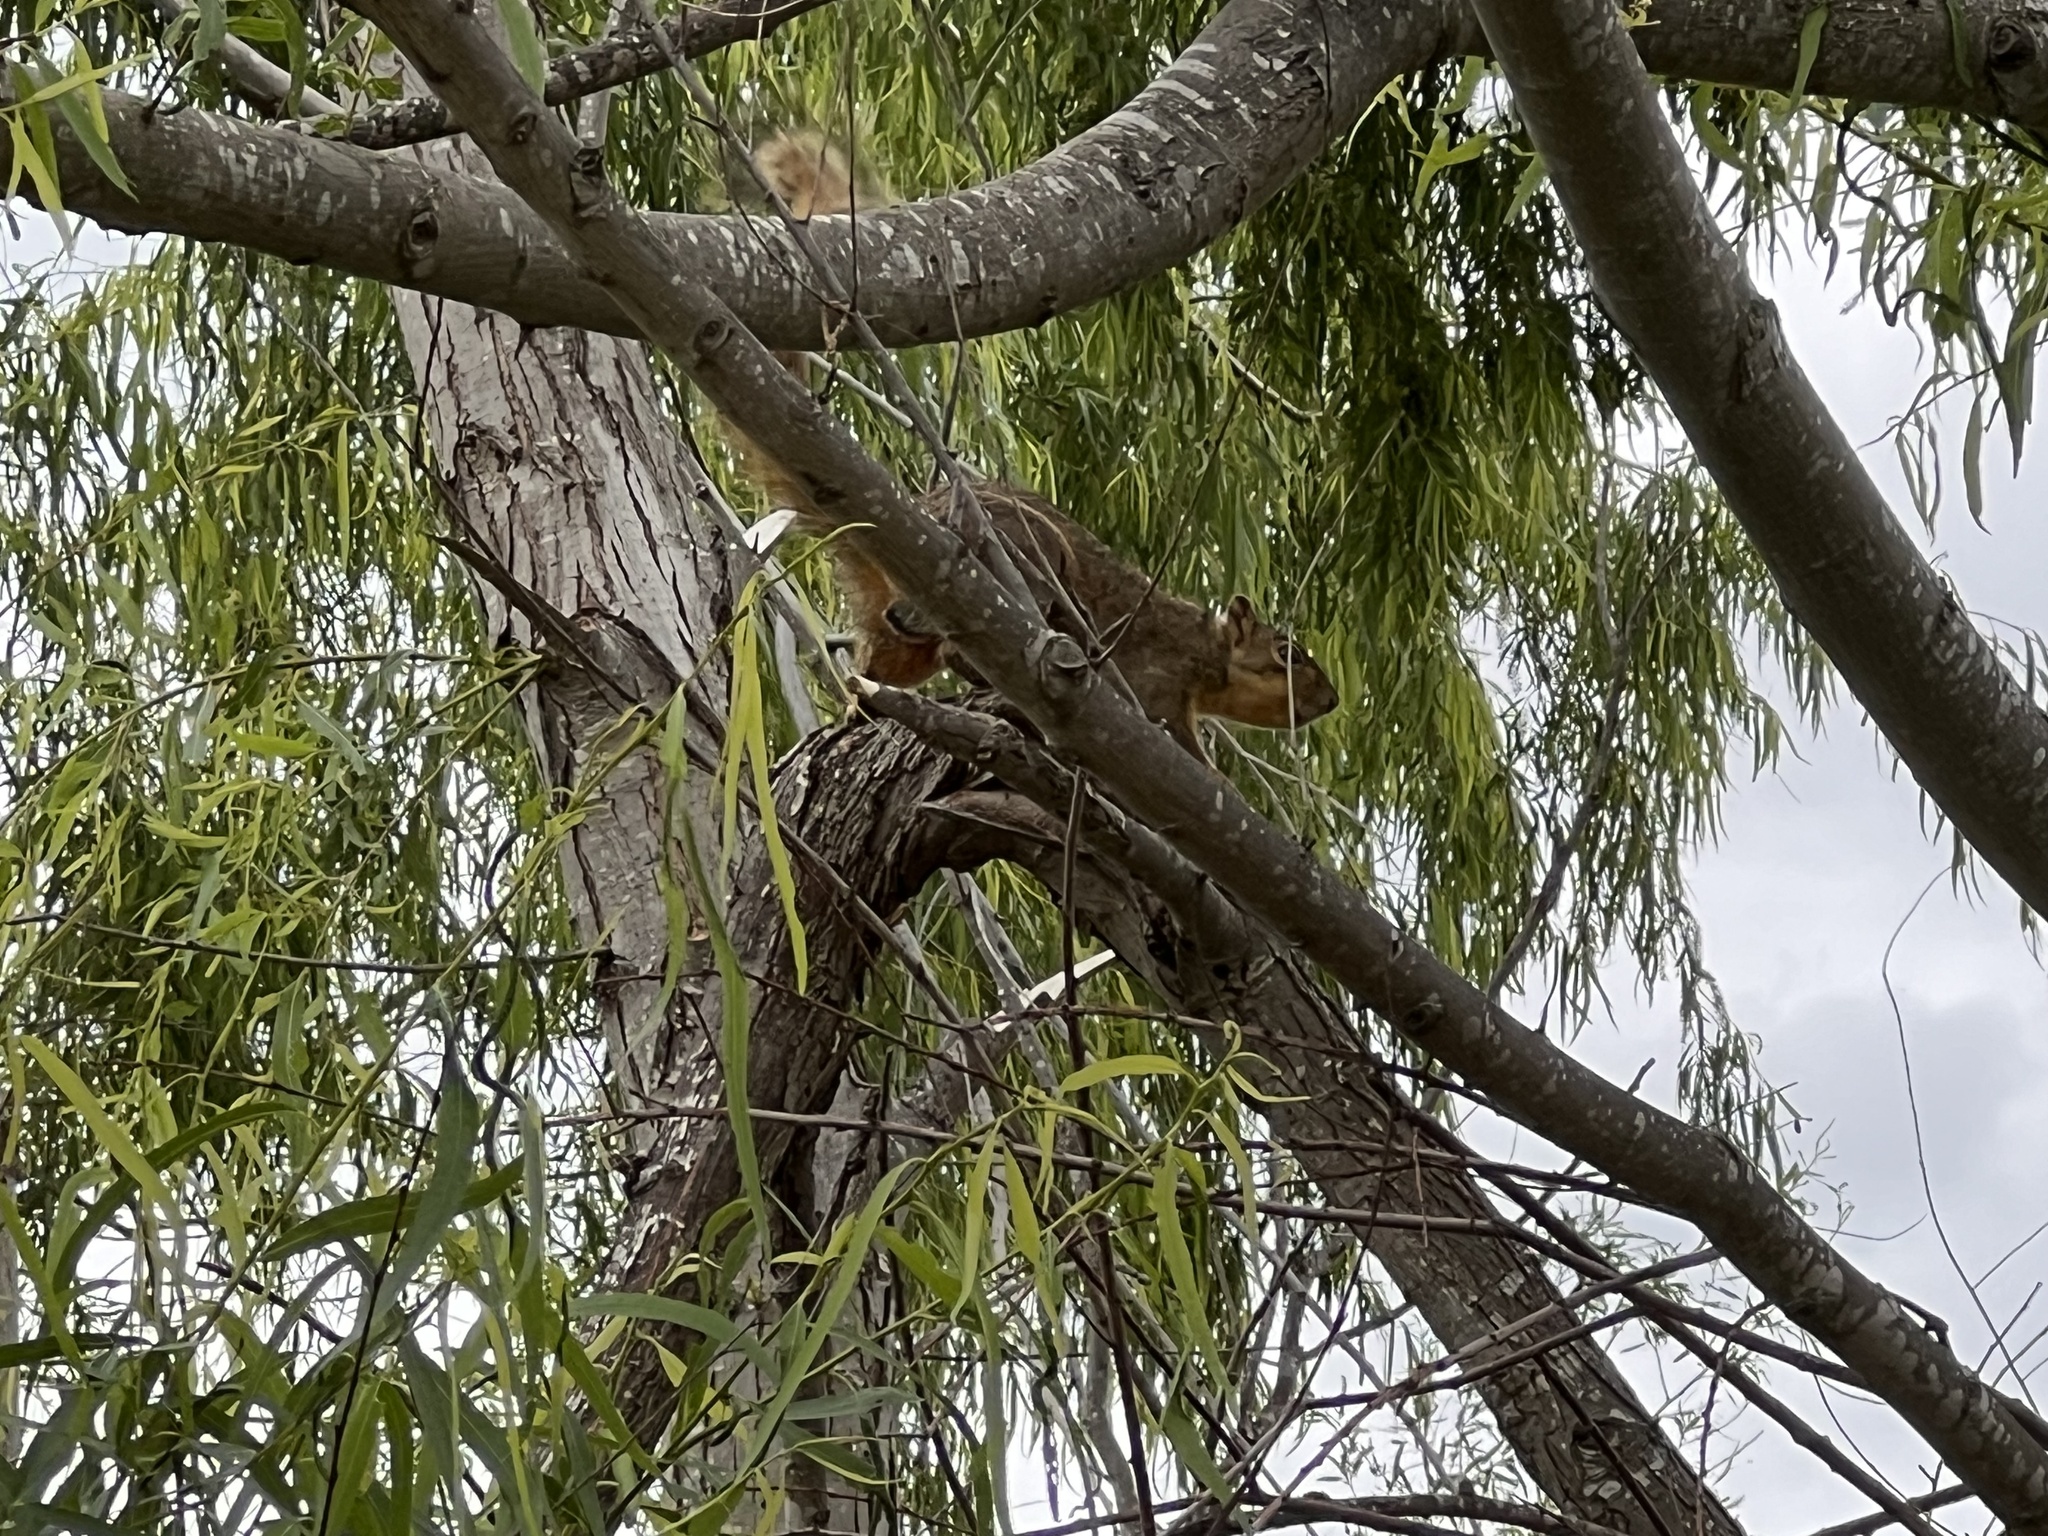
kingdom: Animalia
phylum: Chordata
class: Mammalia
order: Rodentia
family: Sciuridae
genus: Sciurus
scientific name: Sciurus niger
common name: Fox squirrel
